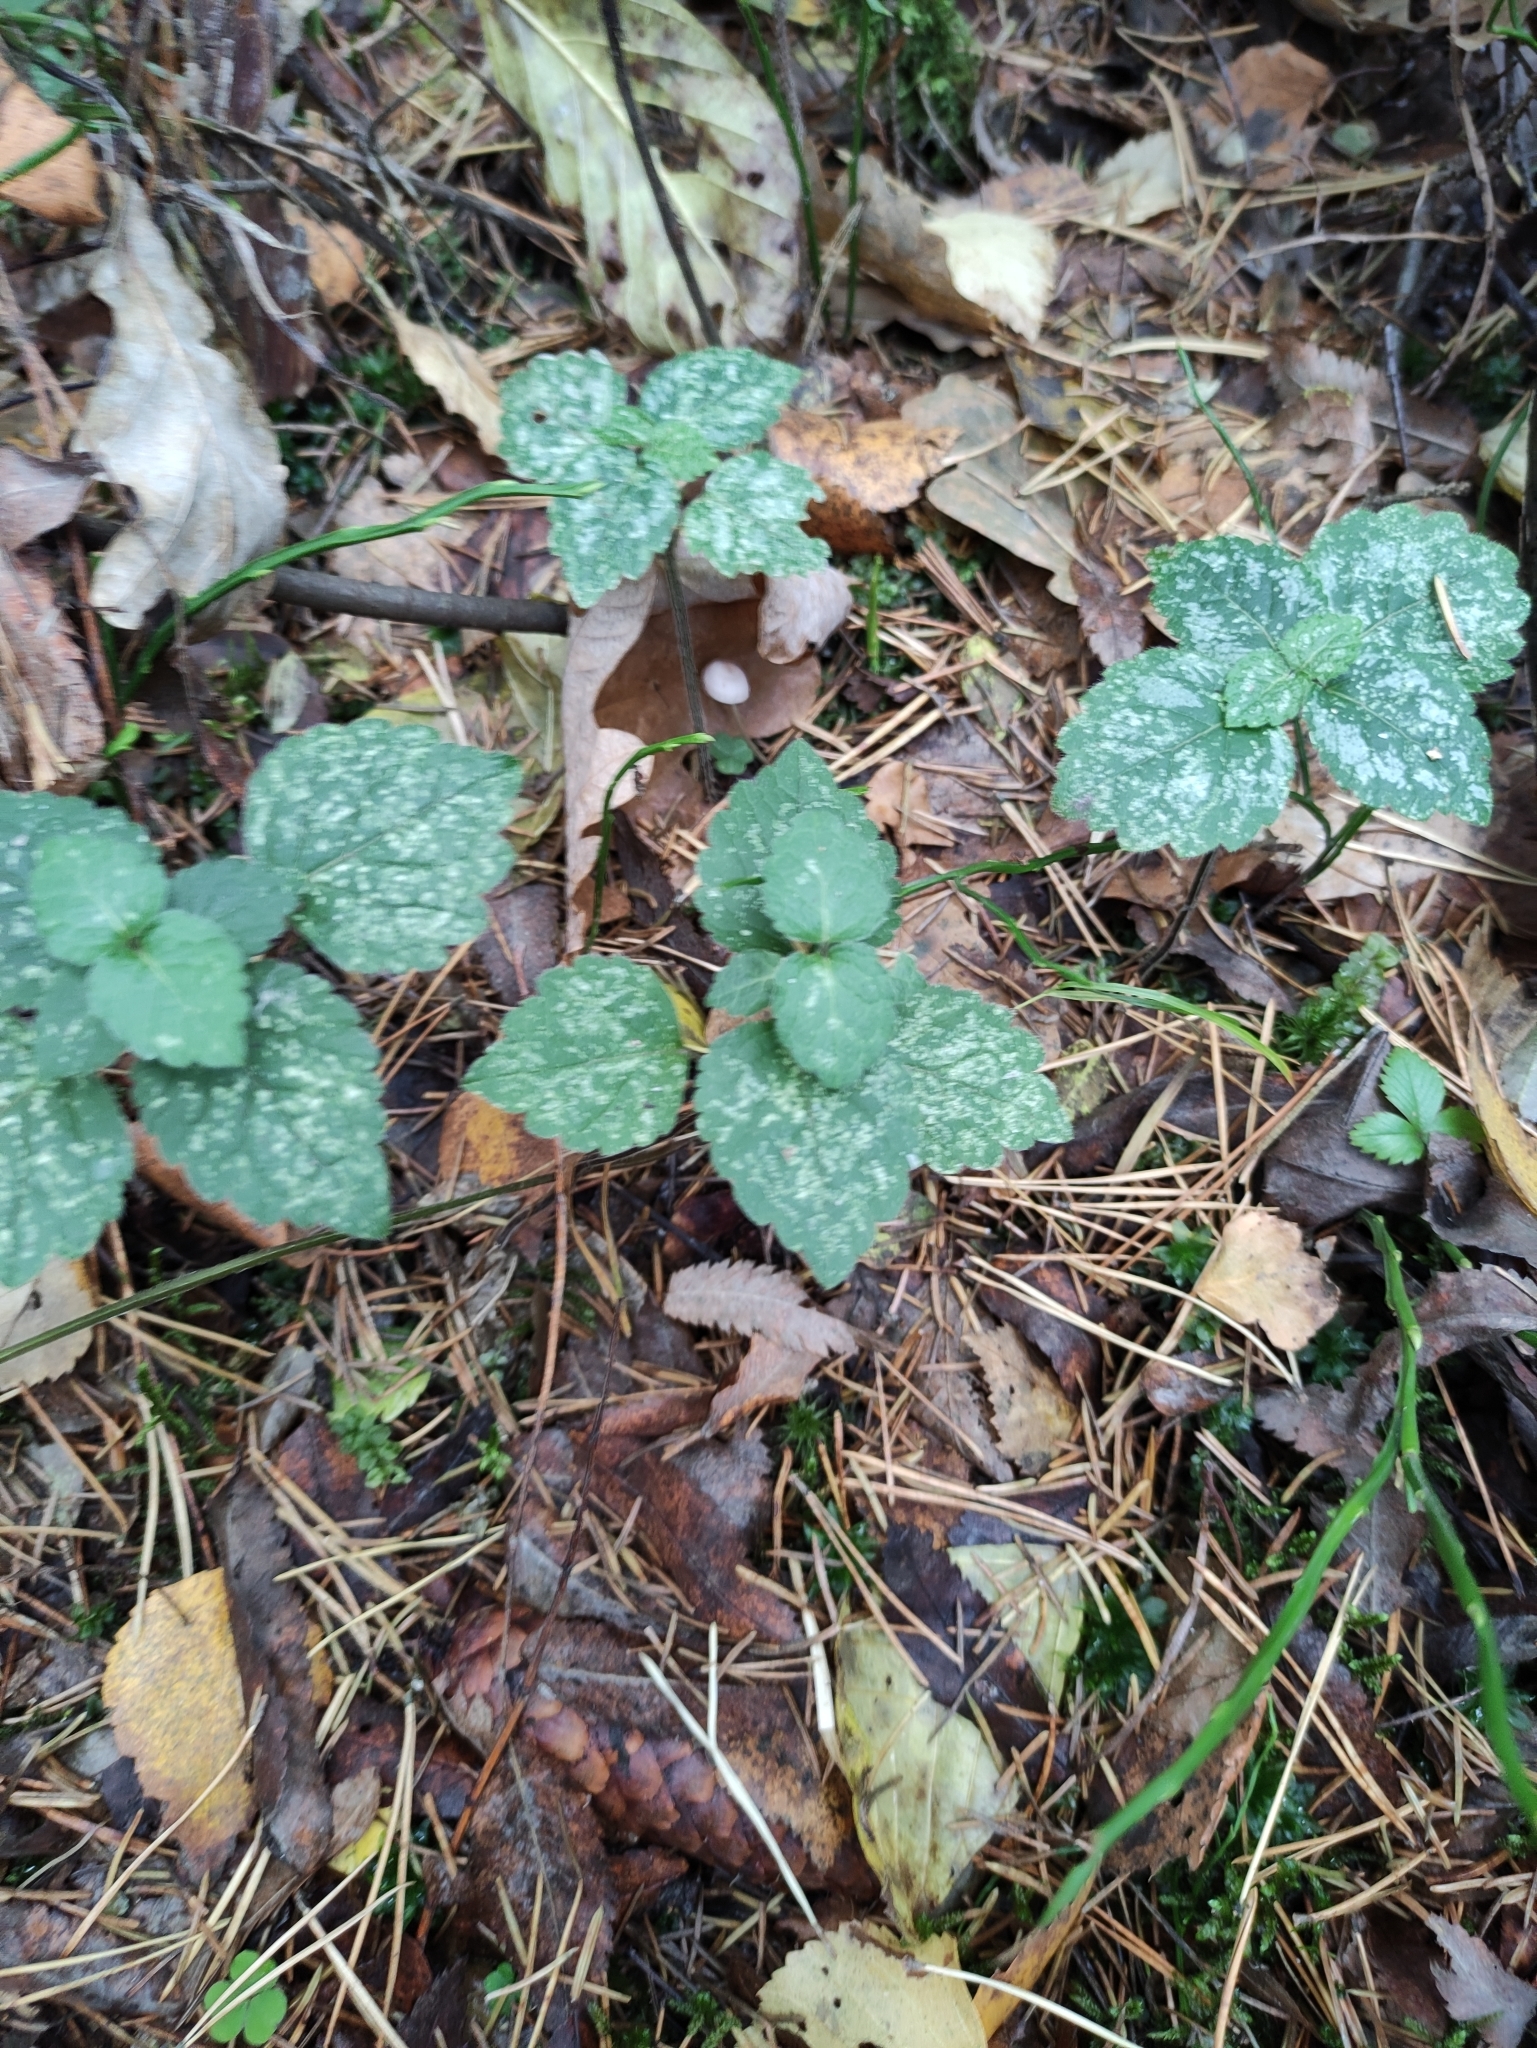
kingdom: Plantae
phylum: Tracheophyta
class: Magnoliopsida
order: Lamiales
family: Lamiaceae
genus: Lamium
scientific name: Lamium galeobdolon
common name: Yellow archangel
